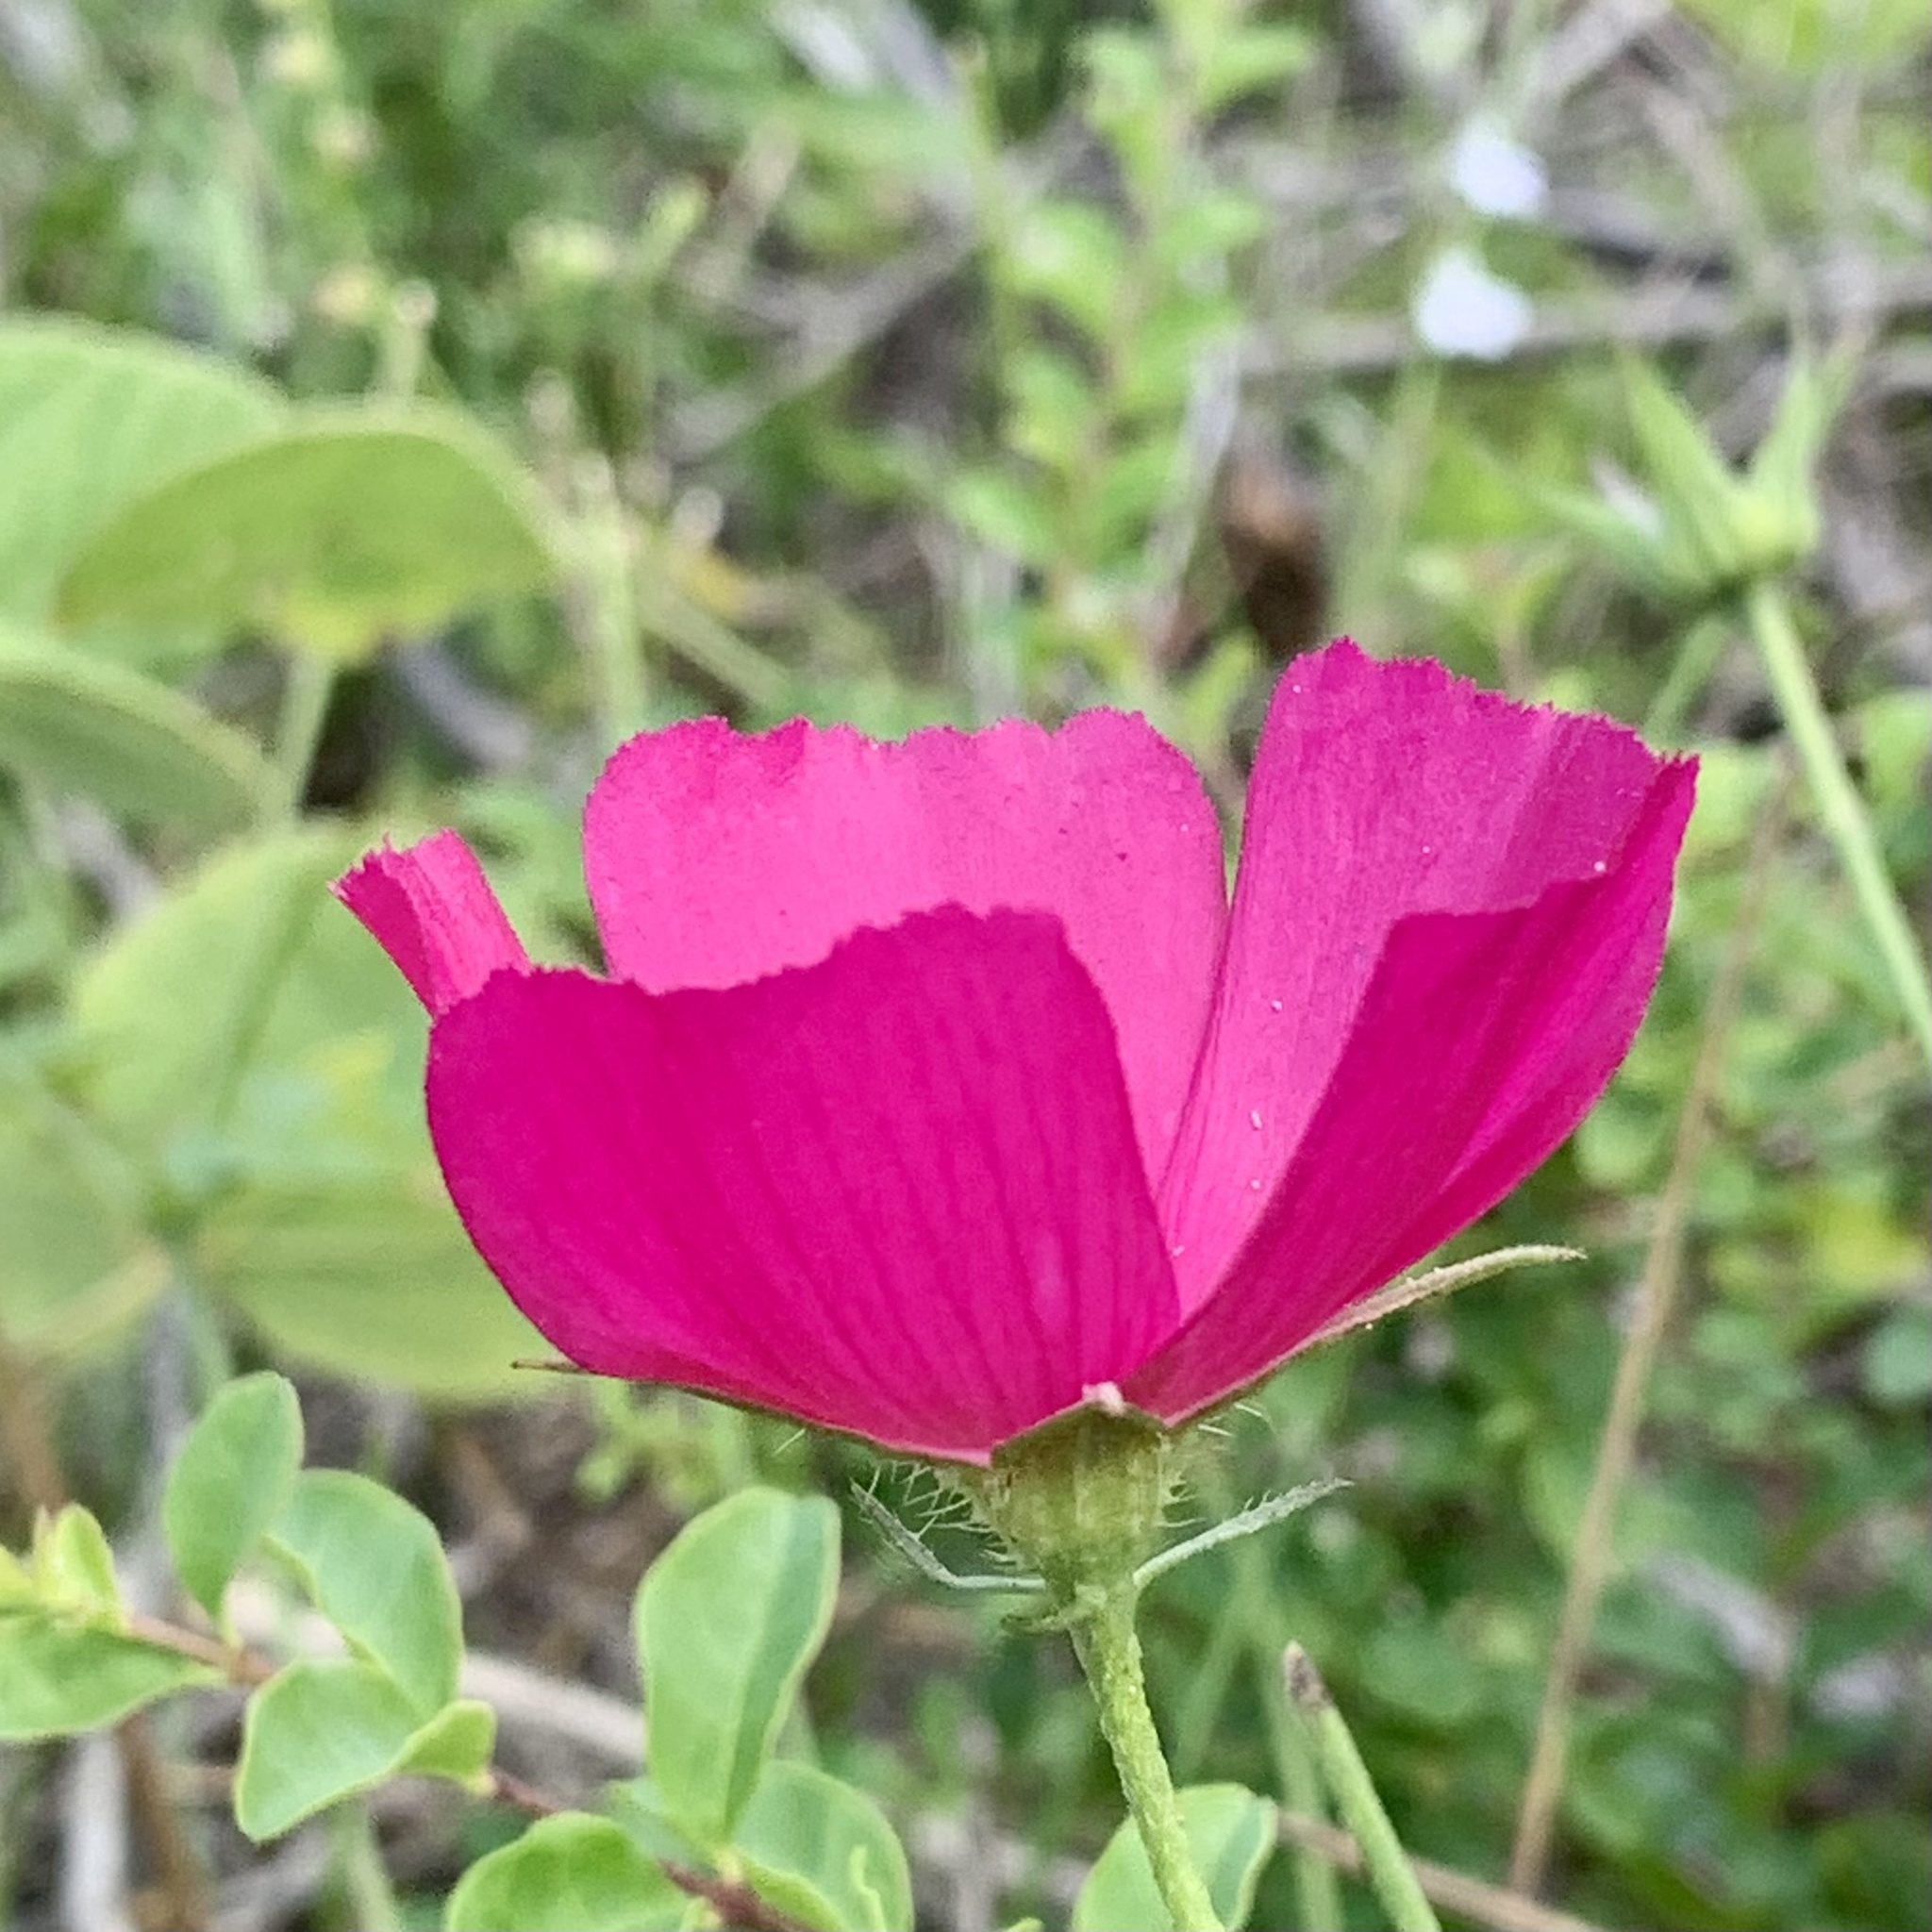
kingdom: Plantae
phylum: Tracheophyta
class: Magnoliopsida
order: Malvales
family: Malvaceae
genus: Callirhoe
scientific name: Callirhoe papaver
